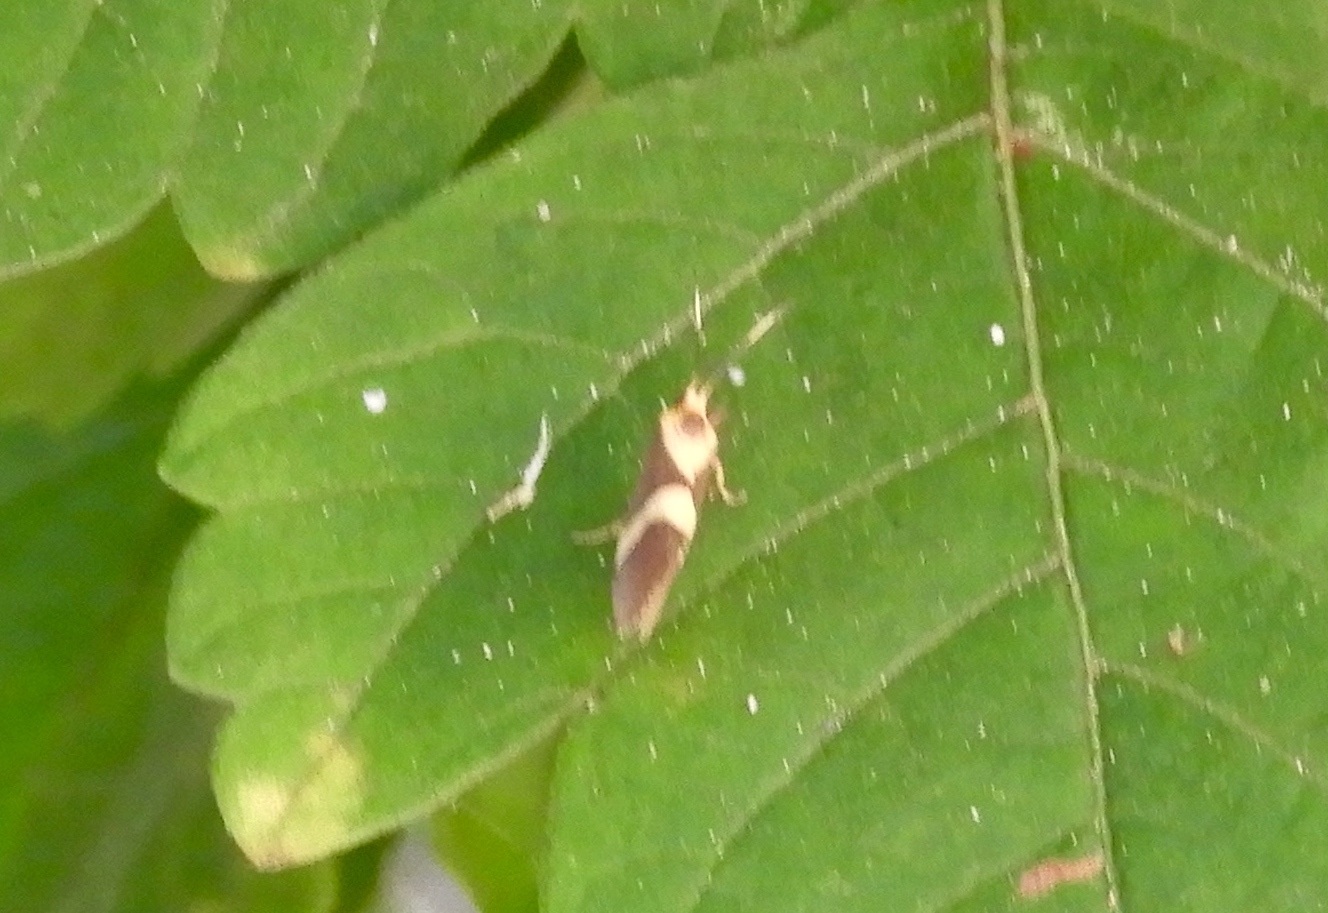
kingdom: Animalia
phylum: Arthropoda
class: Insecta
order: Lepidoptera
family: Erebidae
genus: Cisthene
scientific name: Cisthene
